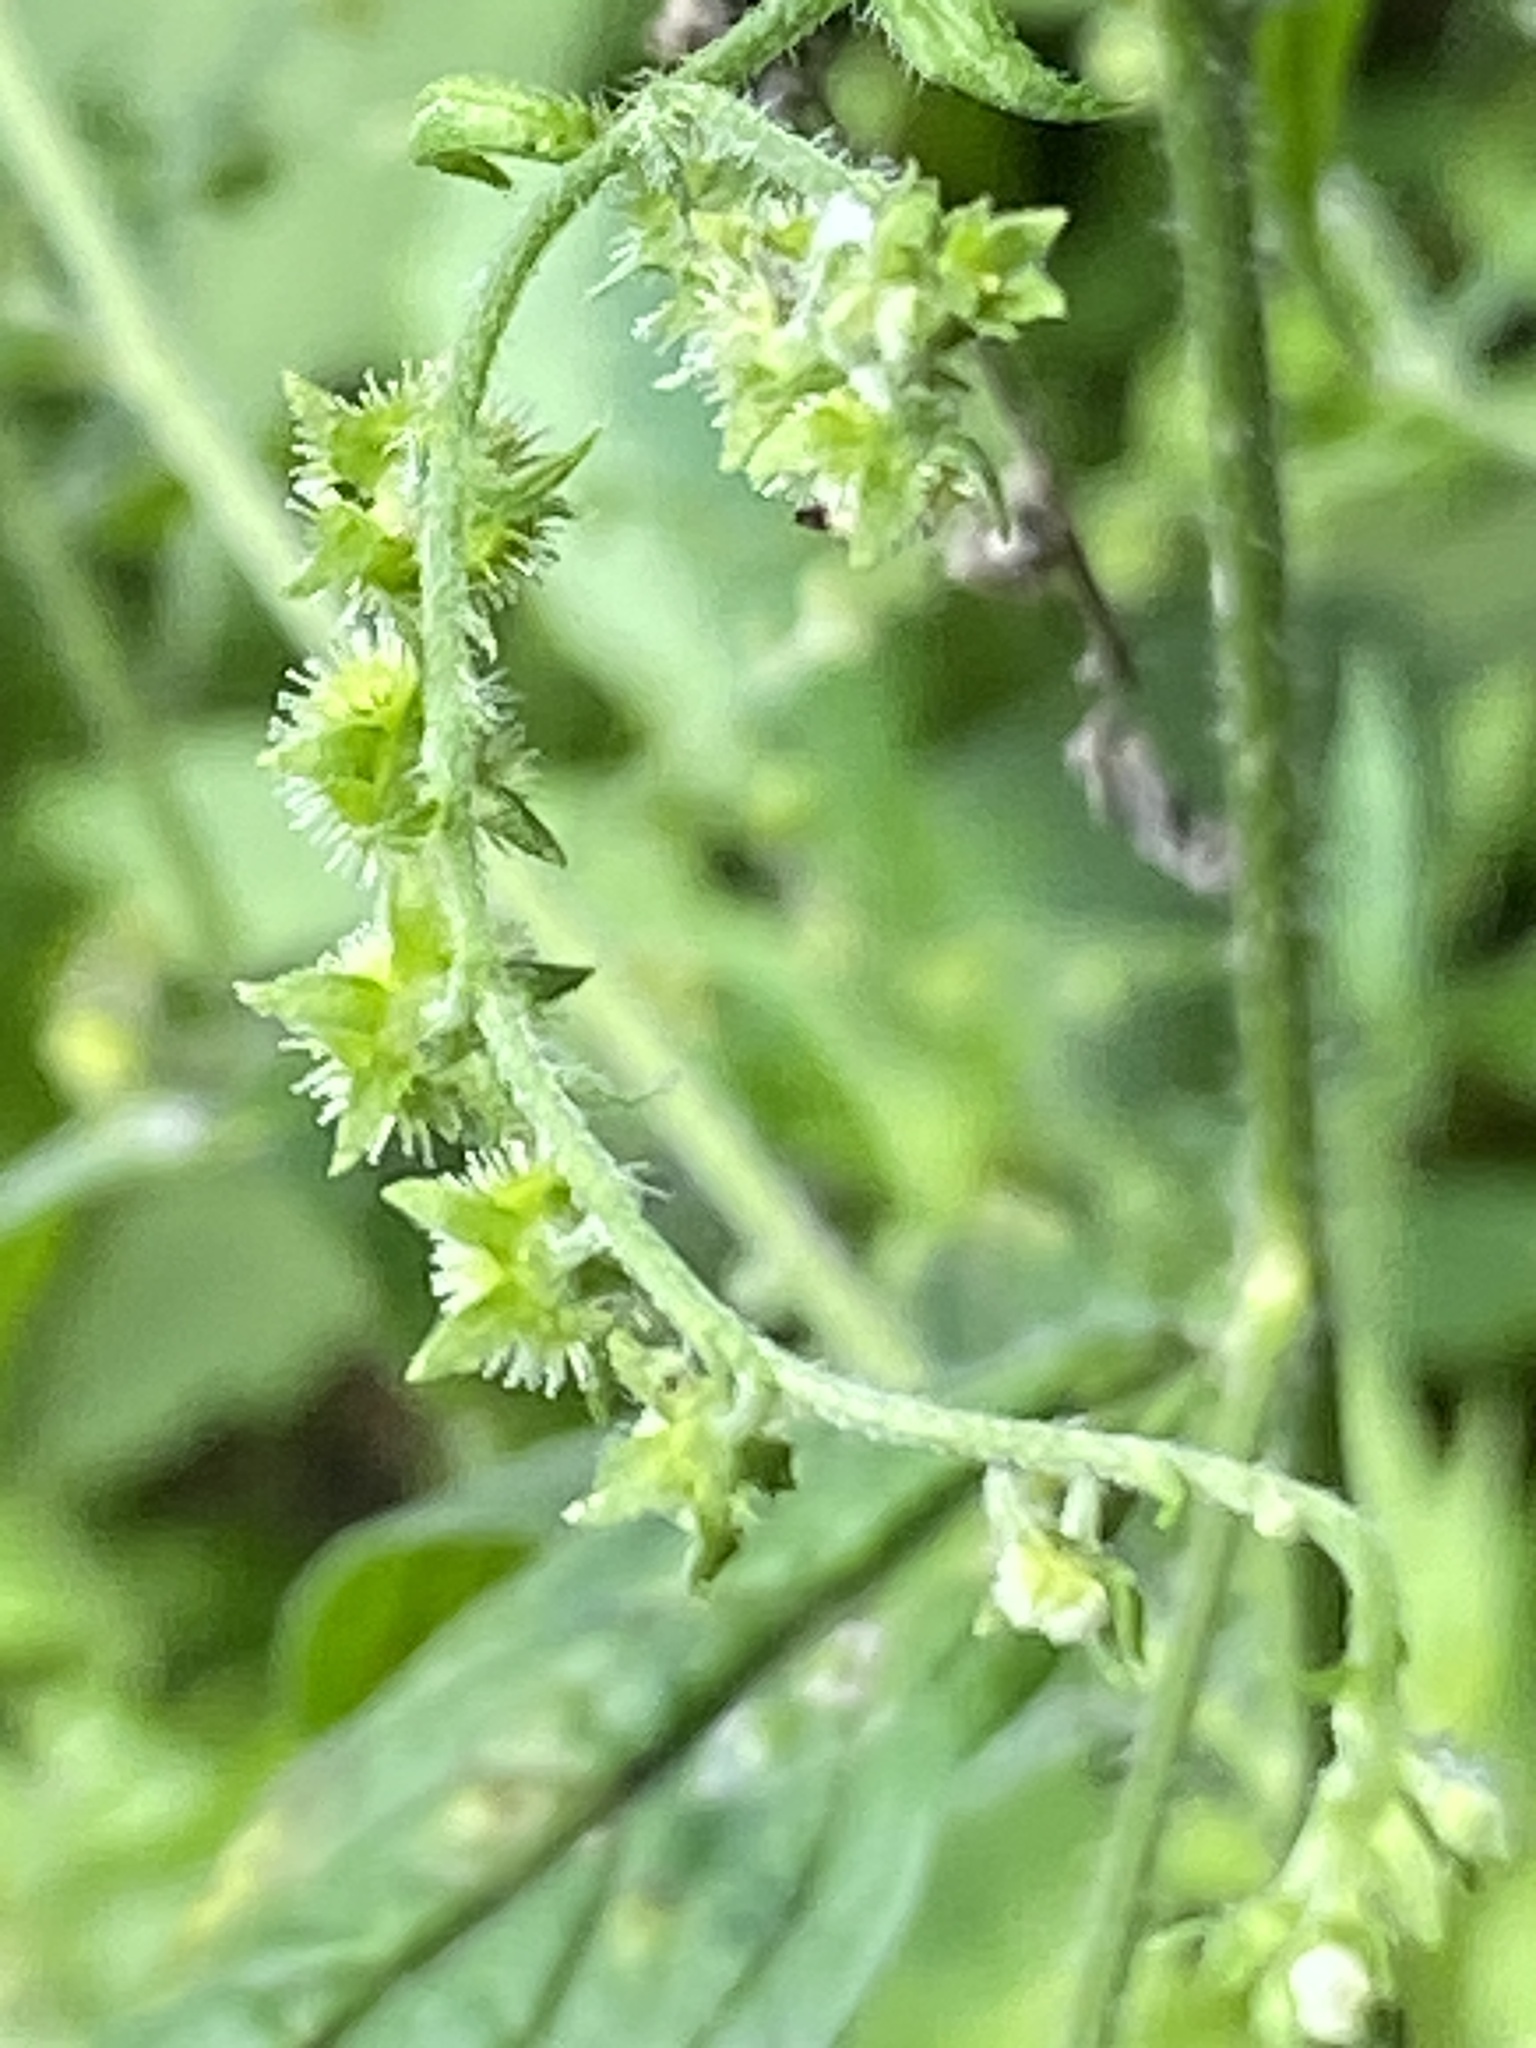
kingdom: Plantae
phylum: Tracheophyta
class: Magnoliopsida
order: Boraginales
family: Boraginaceae
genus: Hackelia
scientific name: Hackelia virginiana
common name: Beggar's-lice
